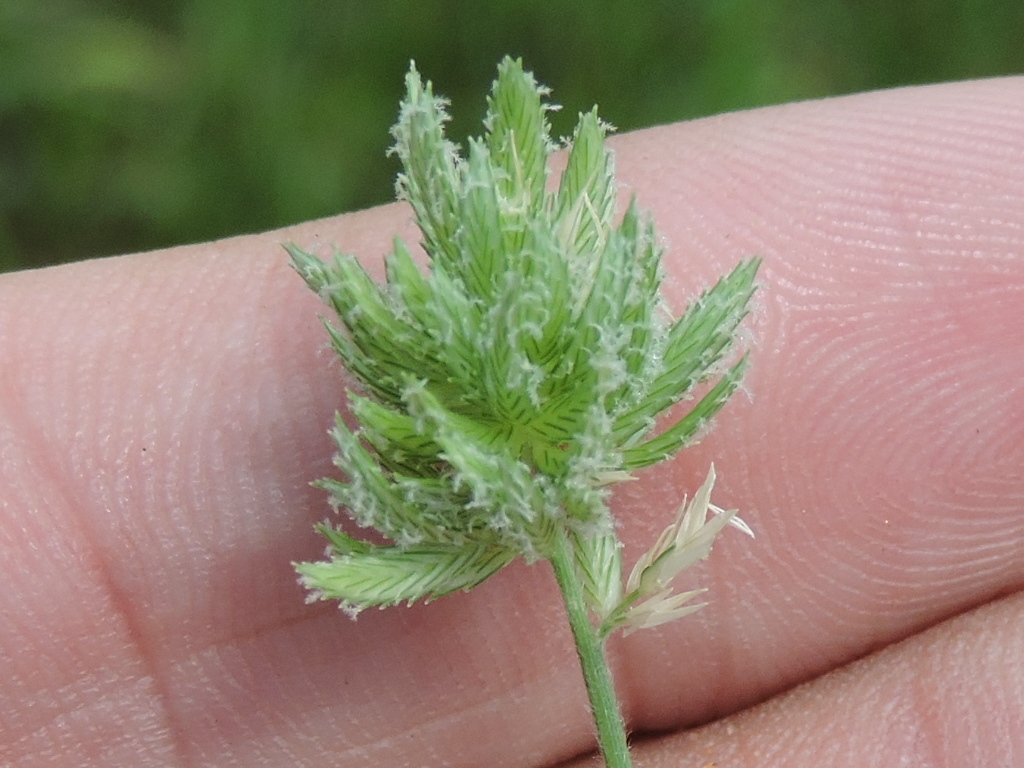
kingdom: Plantae
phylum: Tracheophyta
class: Liliopsida
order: Poales
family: Poaceae
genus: Eragrostis
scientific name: Eragrostis reptans
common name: Creeping love grass
